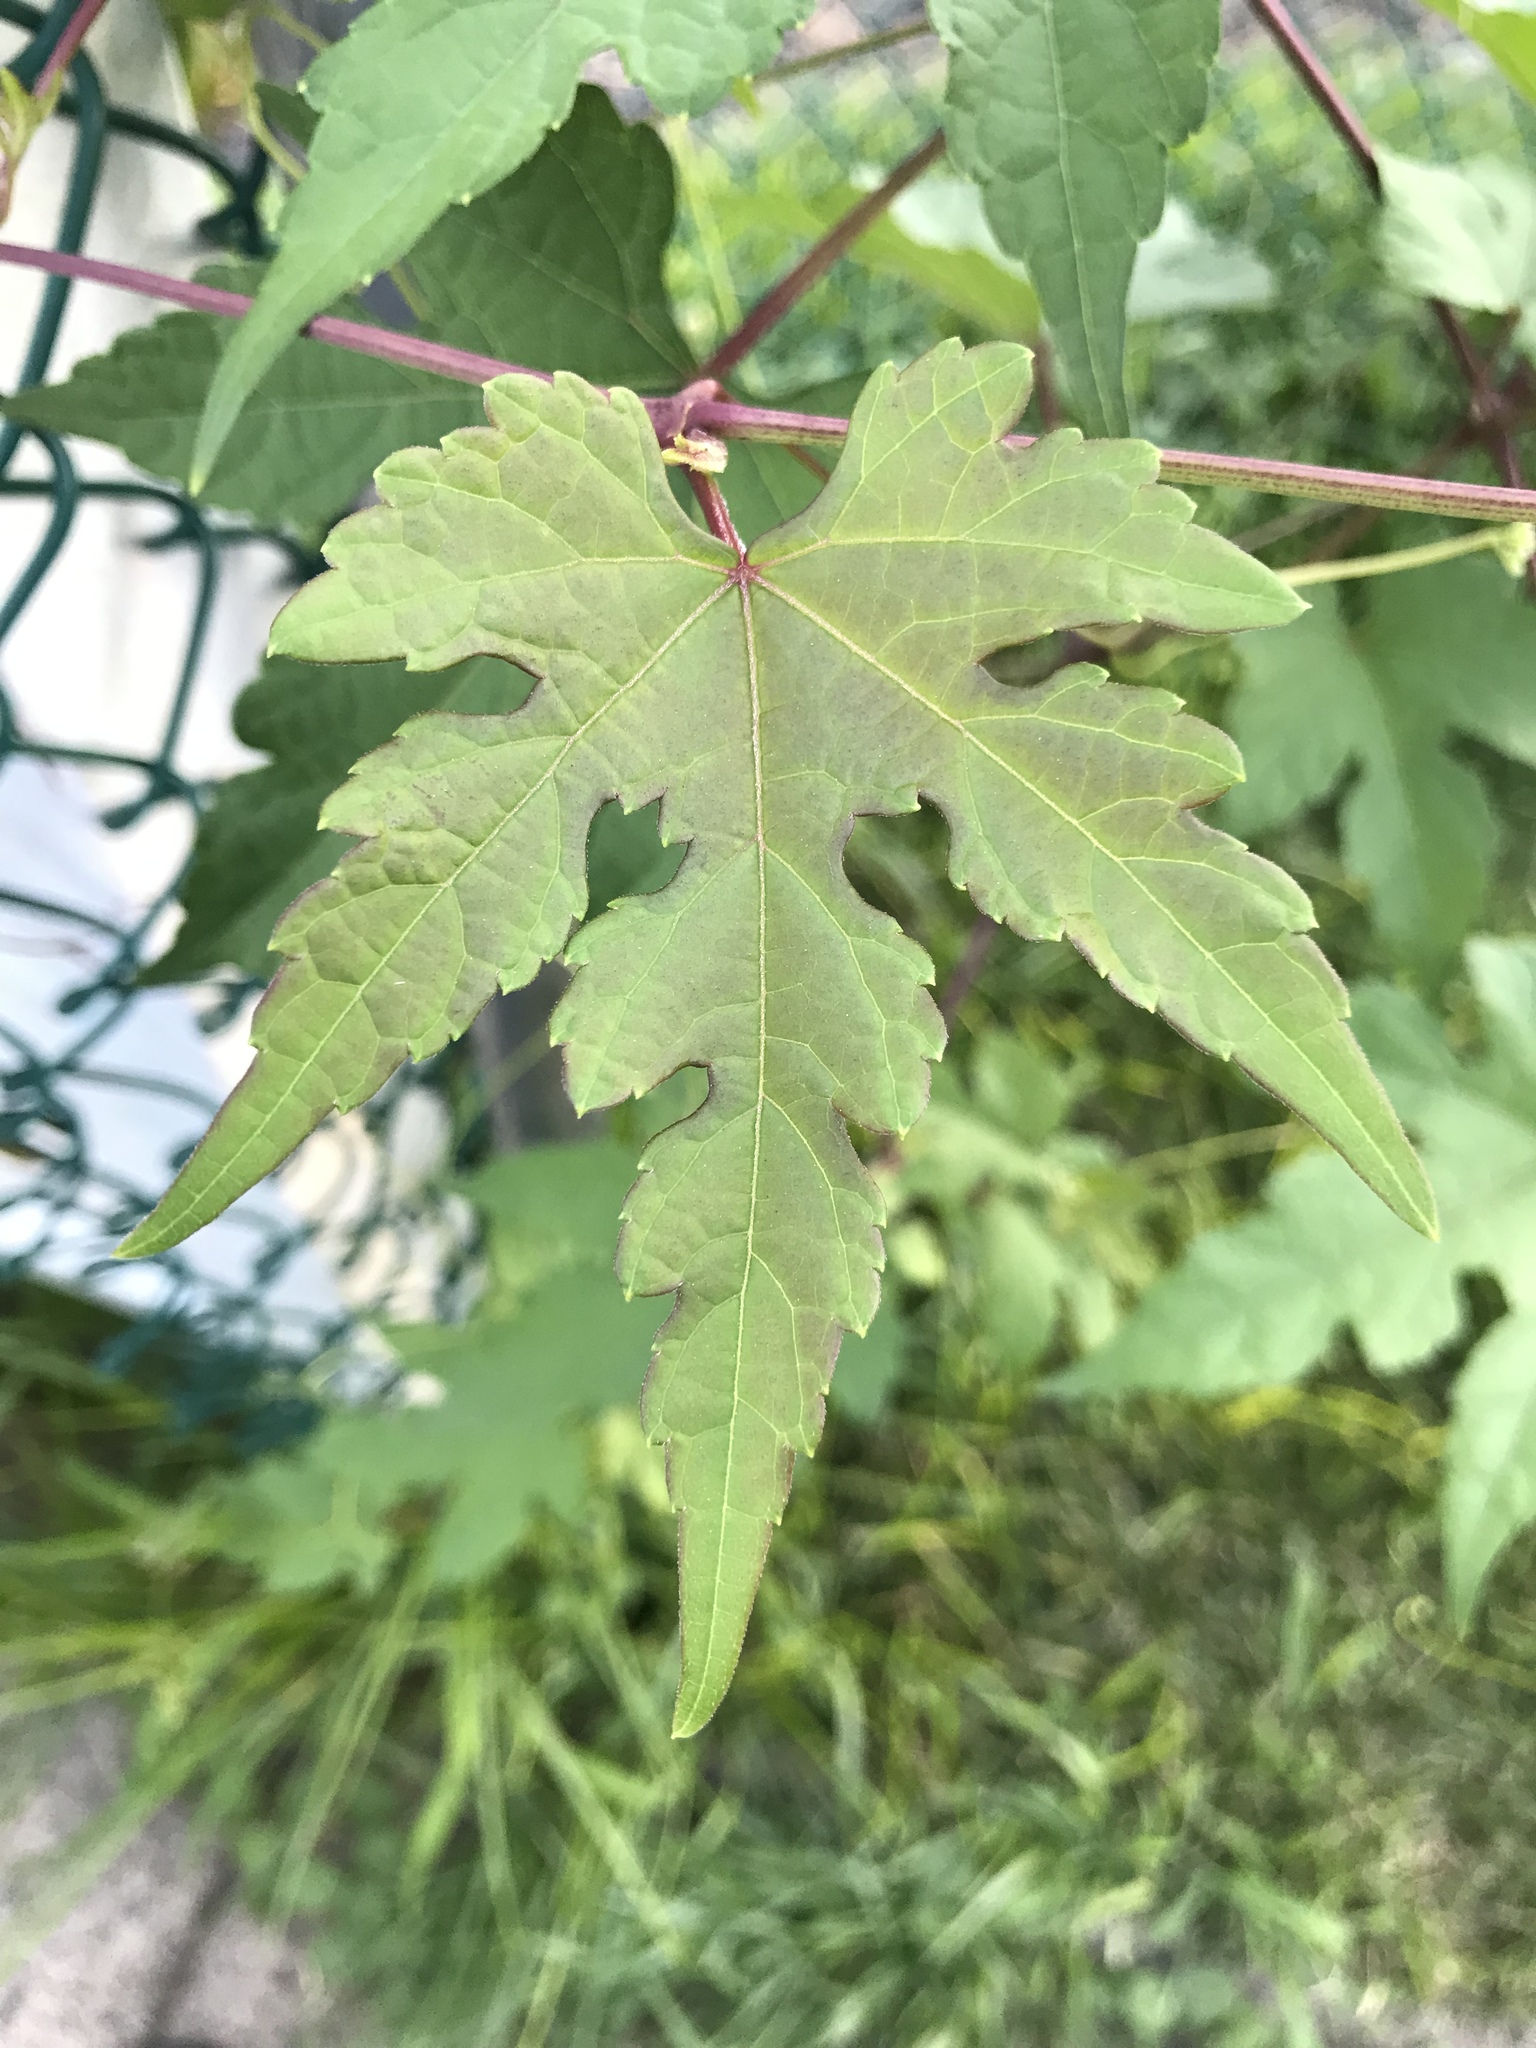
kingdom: Plantae
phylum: Tracheophyta
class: Magnoliopsida
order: Vitales
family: Vitaceae
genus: Ampelopsis
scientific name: Ampelopsis glandulosa
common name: Amur peppervine
